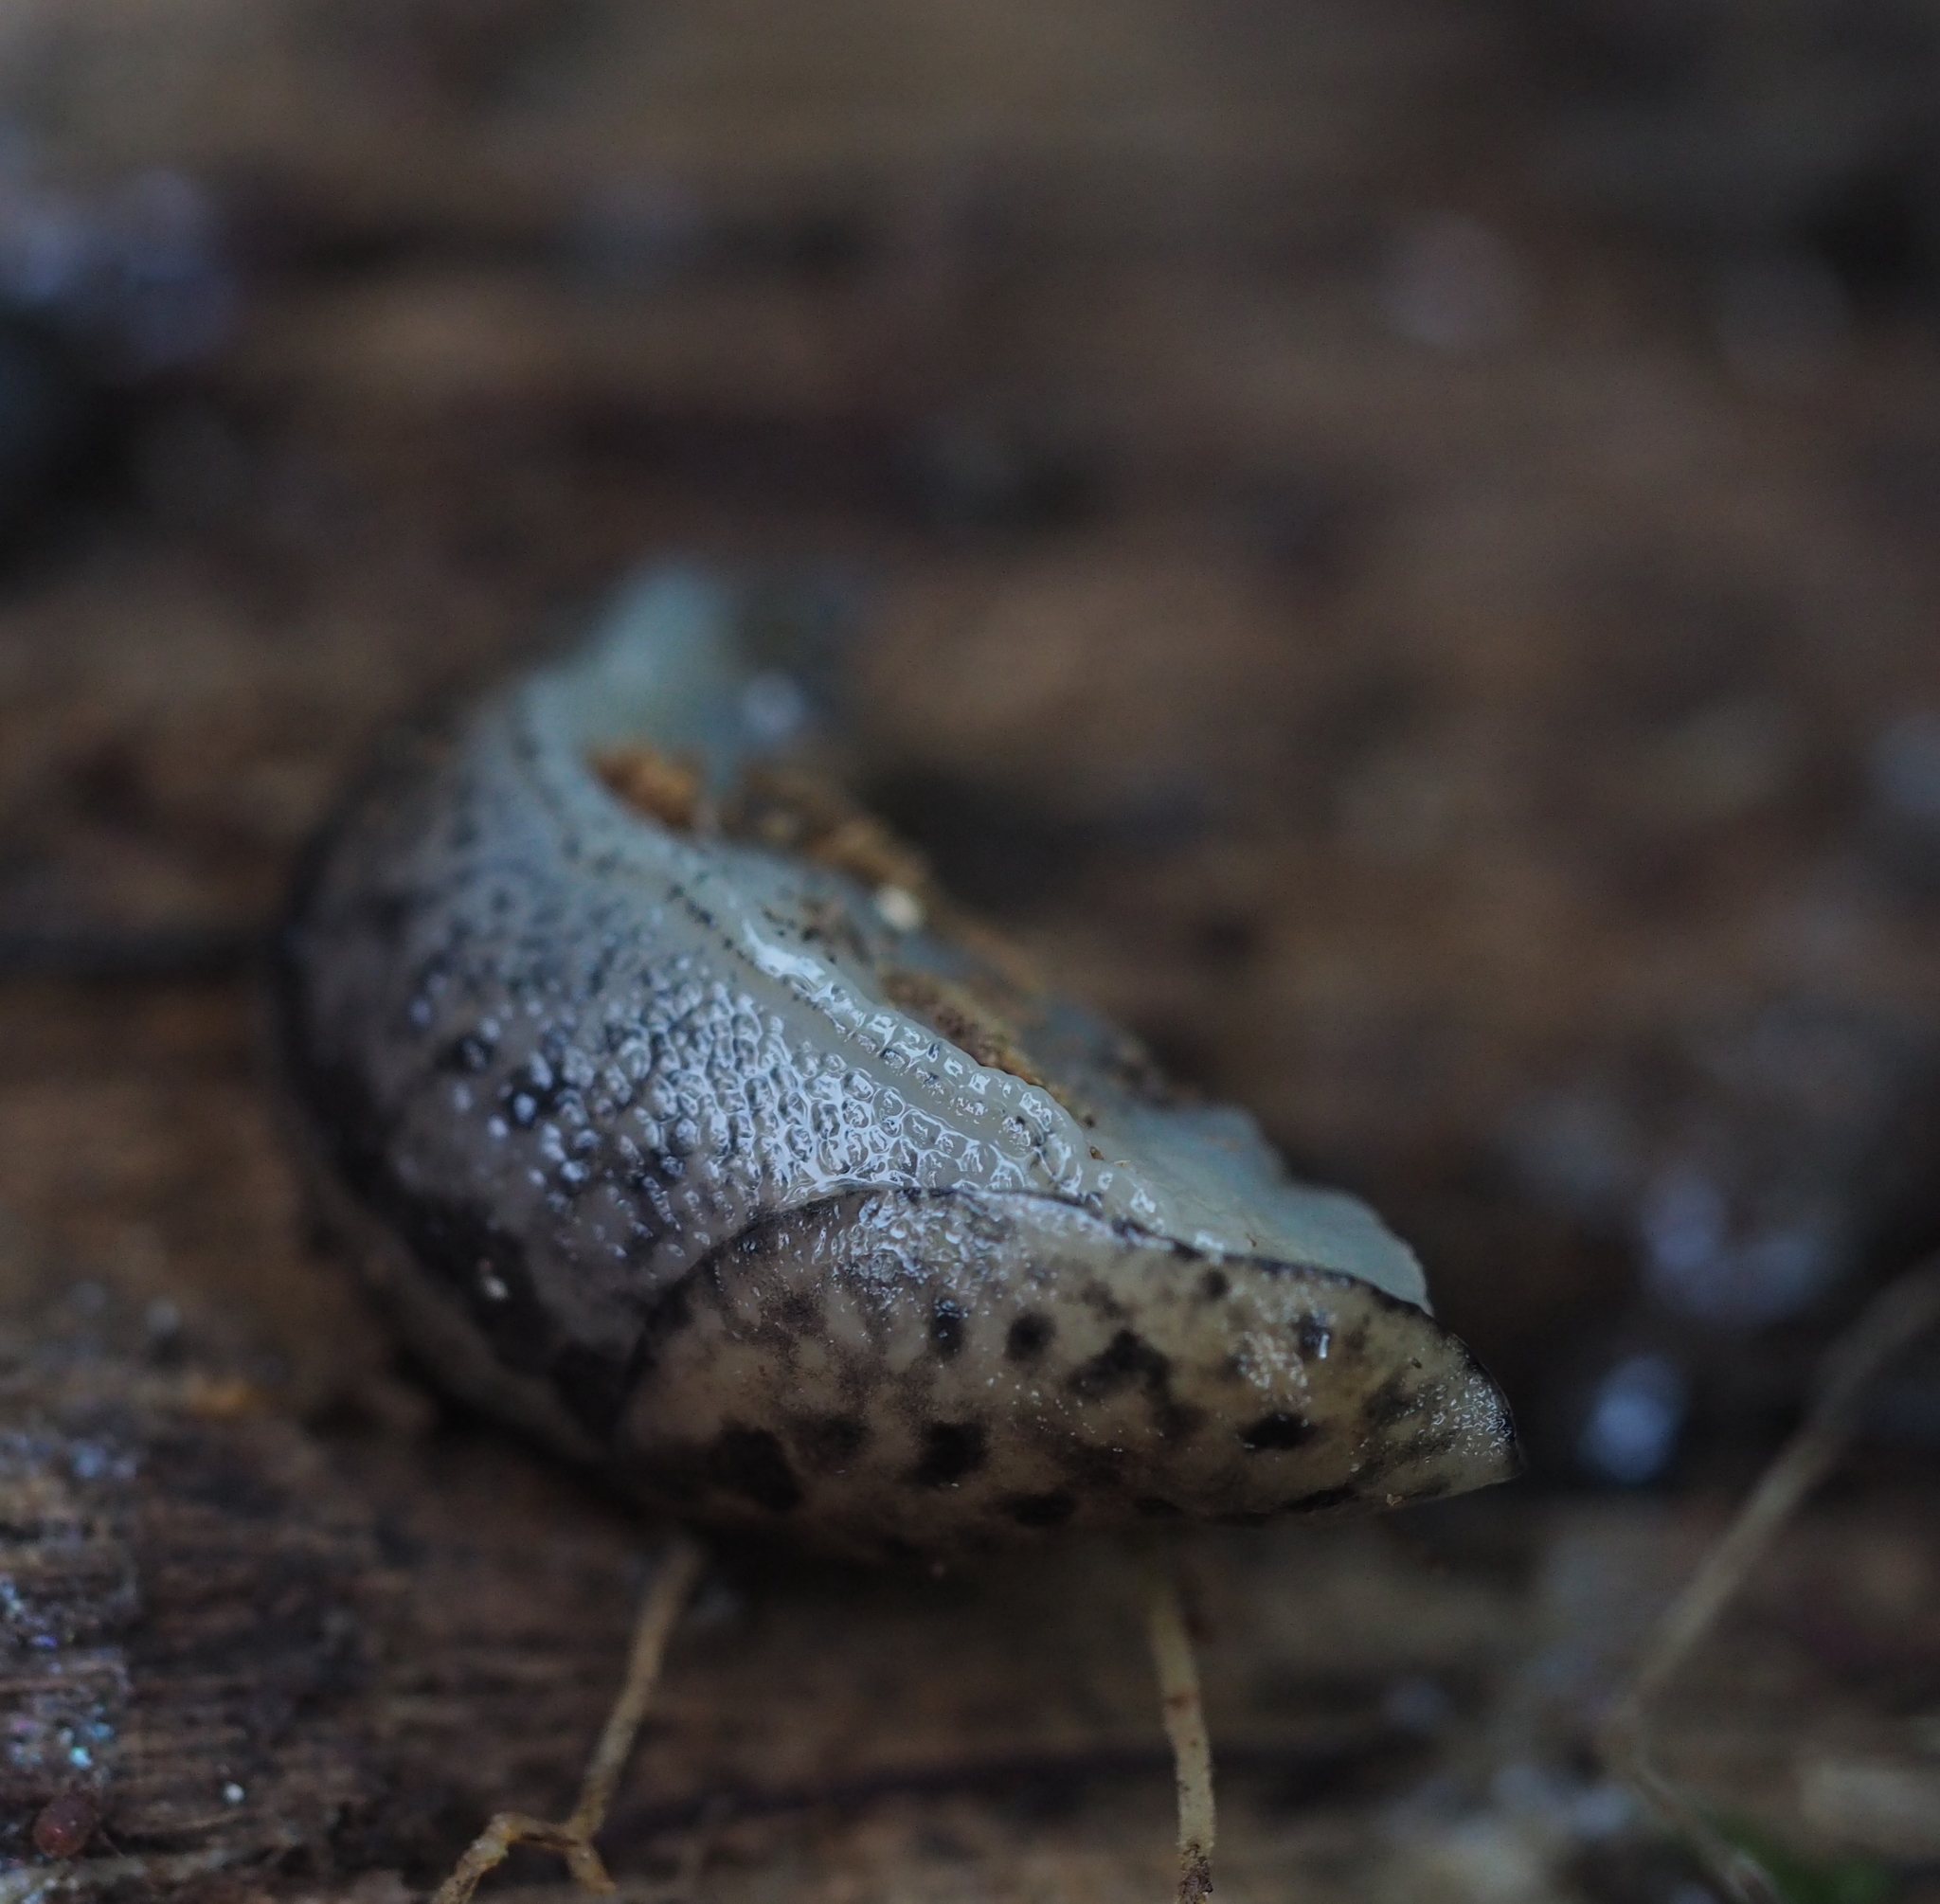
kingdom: Animalia
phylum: Mollusca
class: Gastropoda
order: Stylommatophora
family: Limacidae
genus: Limax
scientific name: Limax maximus
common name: Great grey slug
